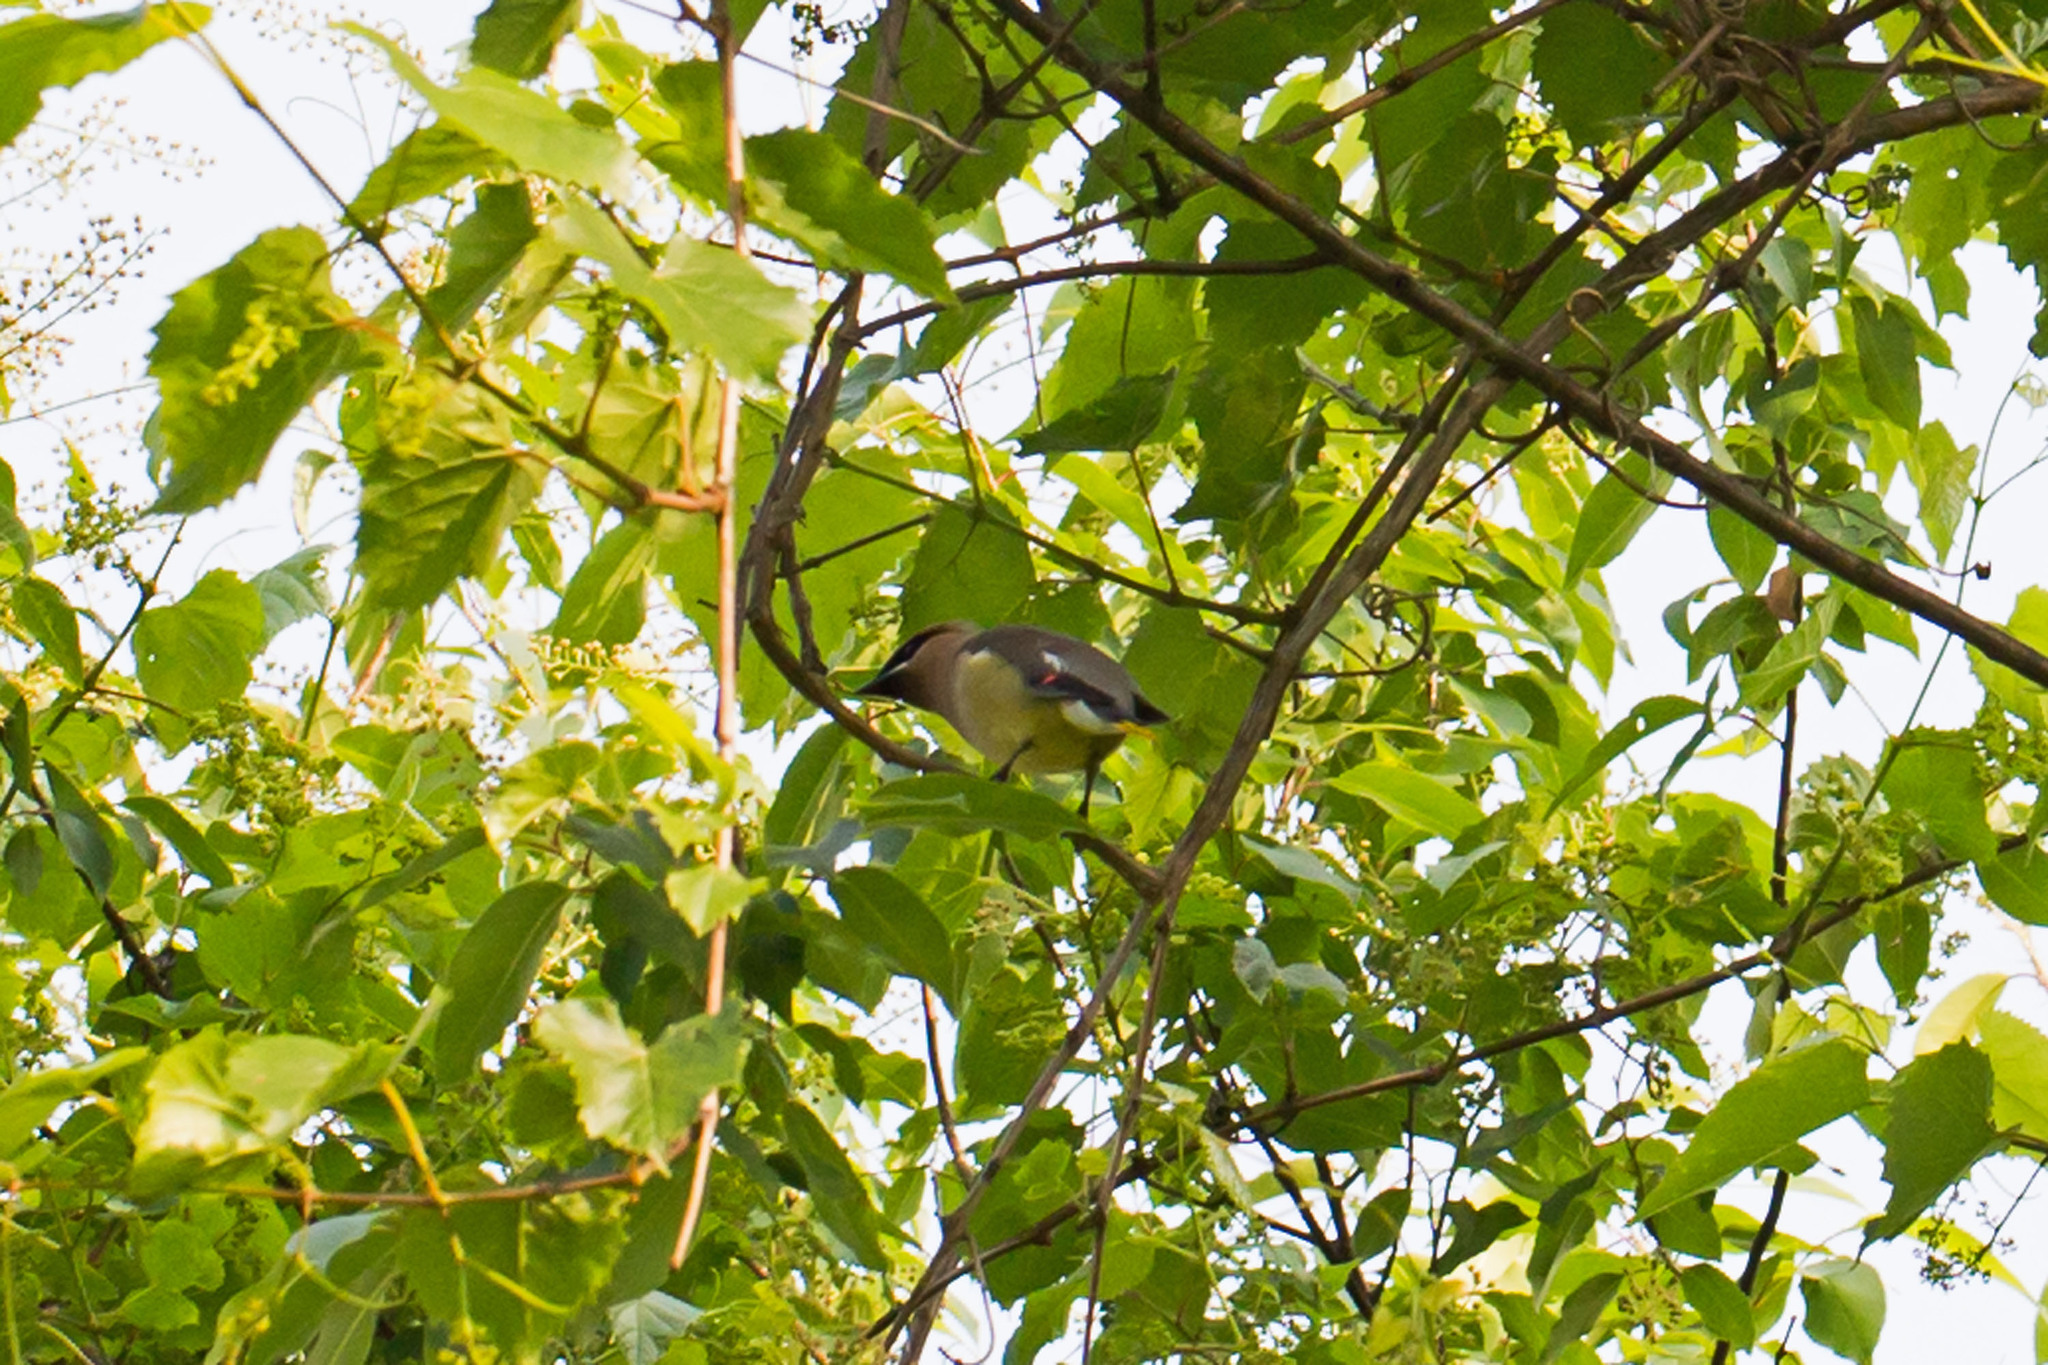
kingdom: Animalia
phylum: Chordata
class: Aves
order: Passeriformes
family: Bombycillidae
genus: Bombycilla
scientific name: Bombycilla cedrorum
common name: Cedar waxwing
